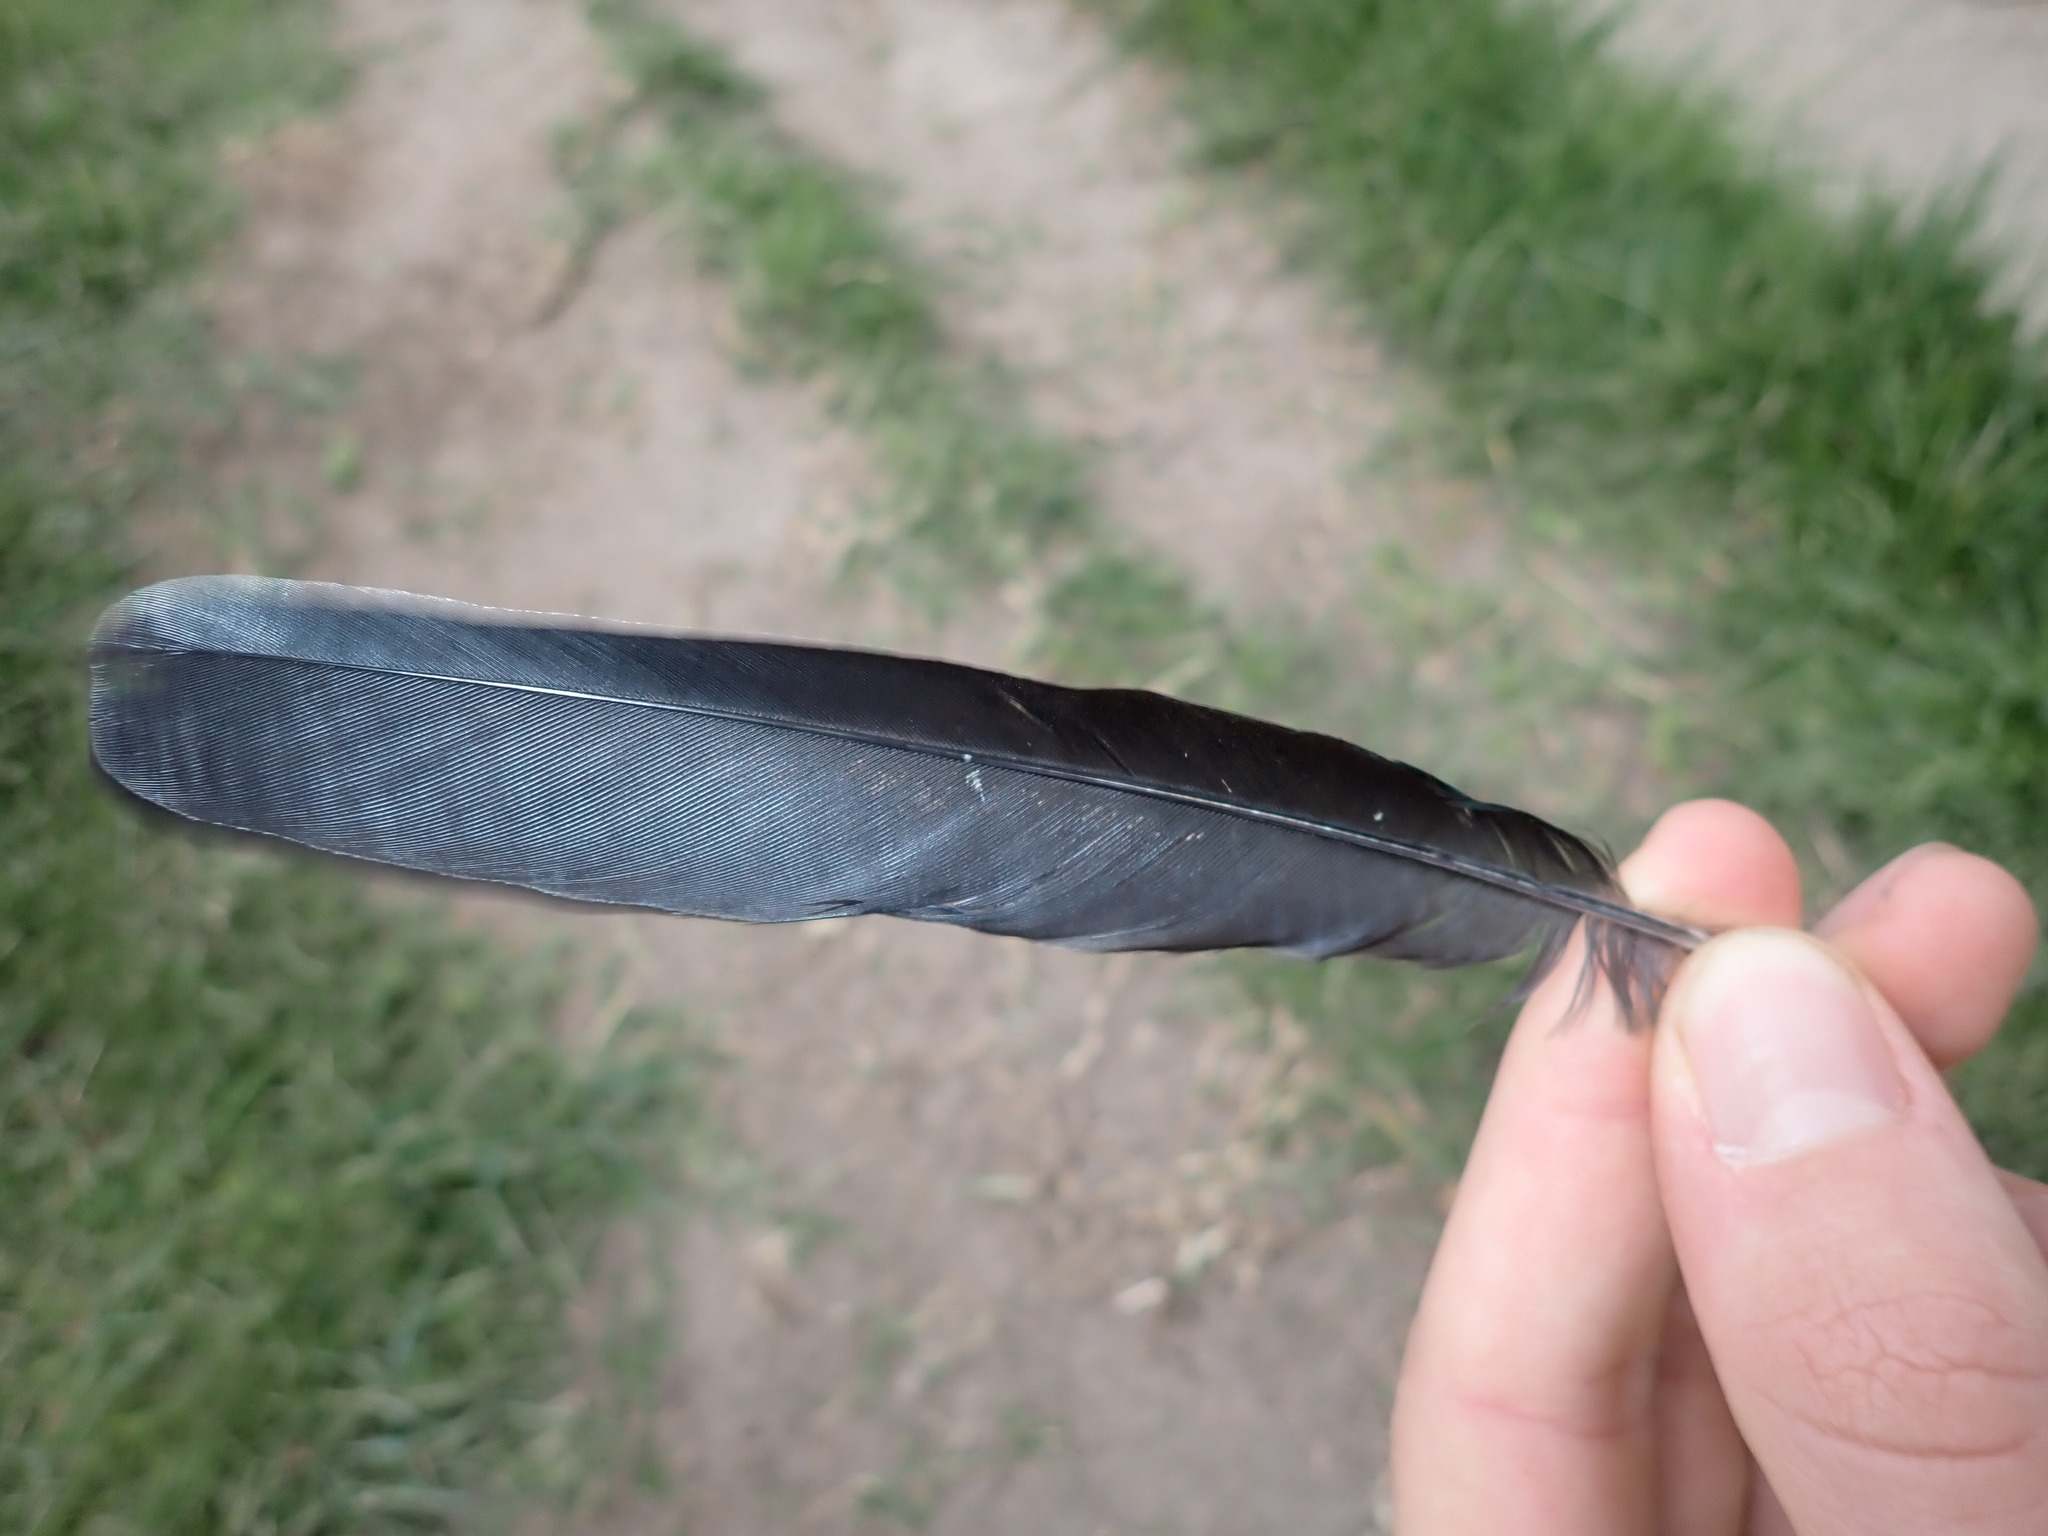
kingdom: Animalia
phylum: Chordata
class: Aves
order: Passeriformes
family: Corvidae
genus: Pica
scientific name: Pica pica
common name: Eurasian magpie
